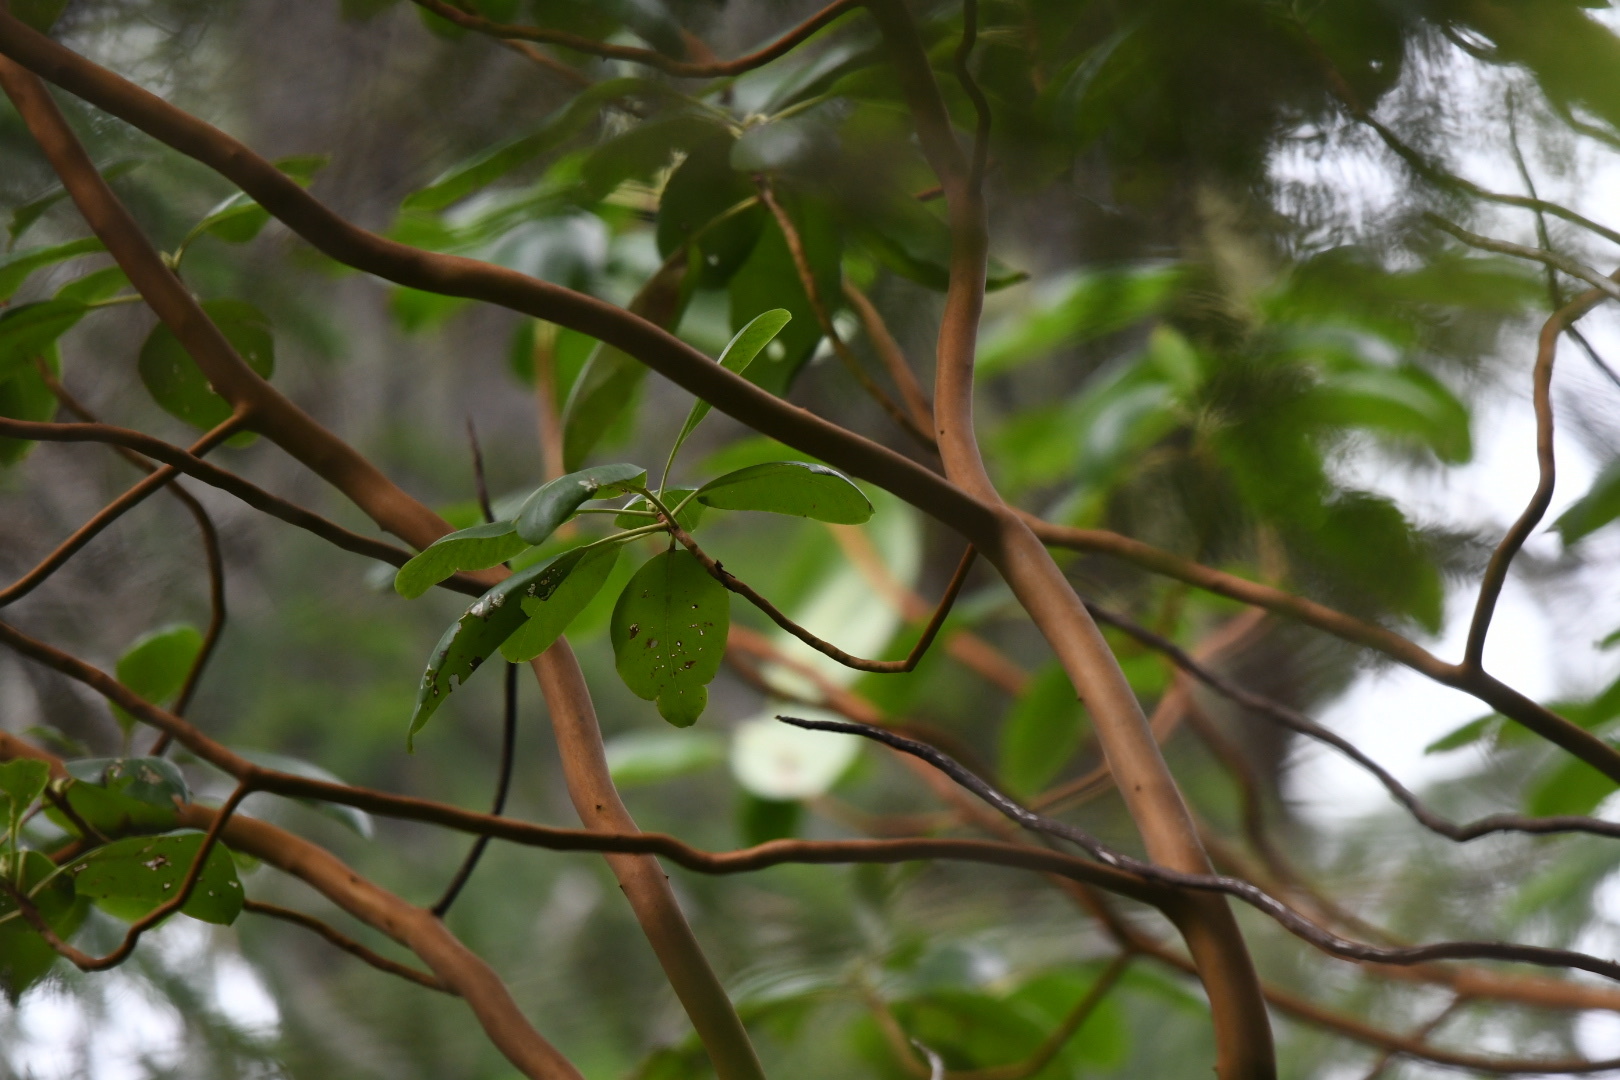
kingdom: Plantae
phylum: Tracheophyta
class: Magnoliopsida
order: Ericales
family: Ericaceae
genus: Arbutus
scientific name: Arbutus menziesii
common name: Pacific madrone
